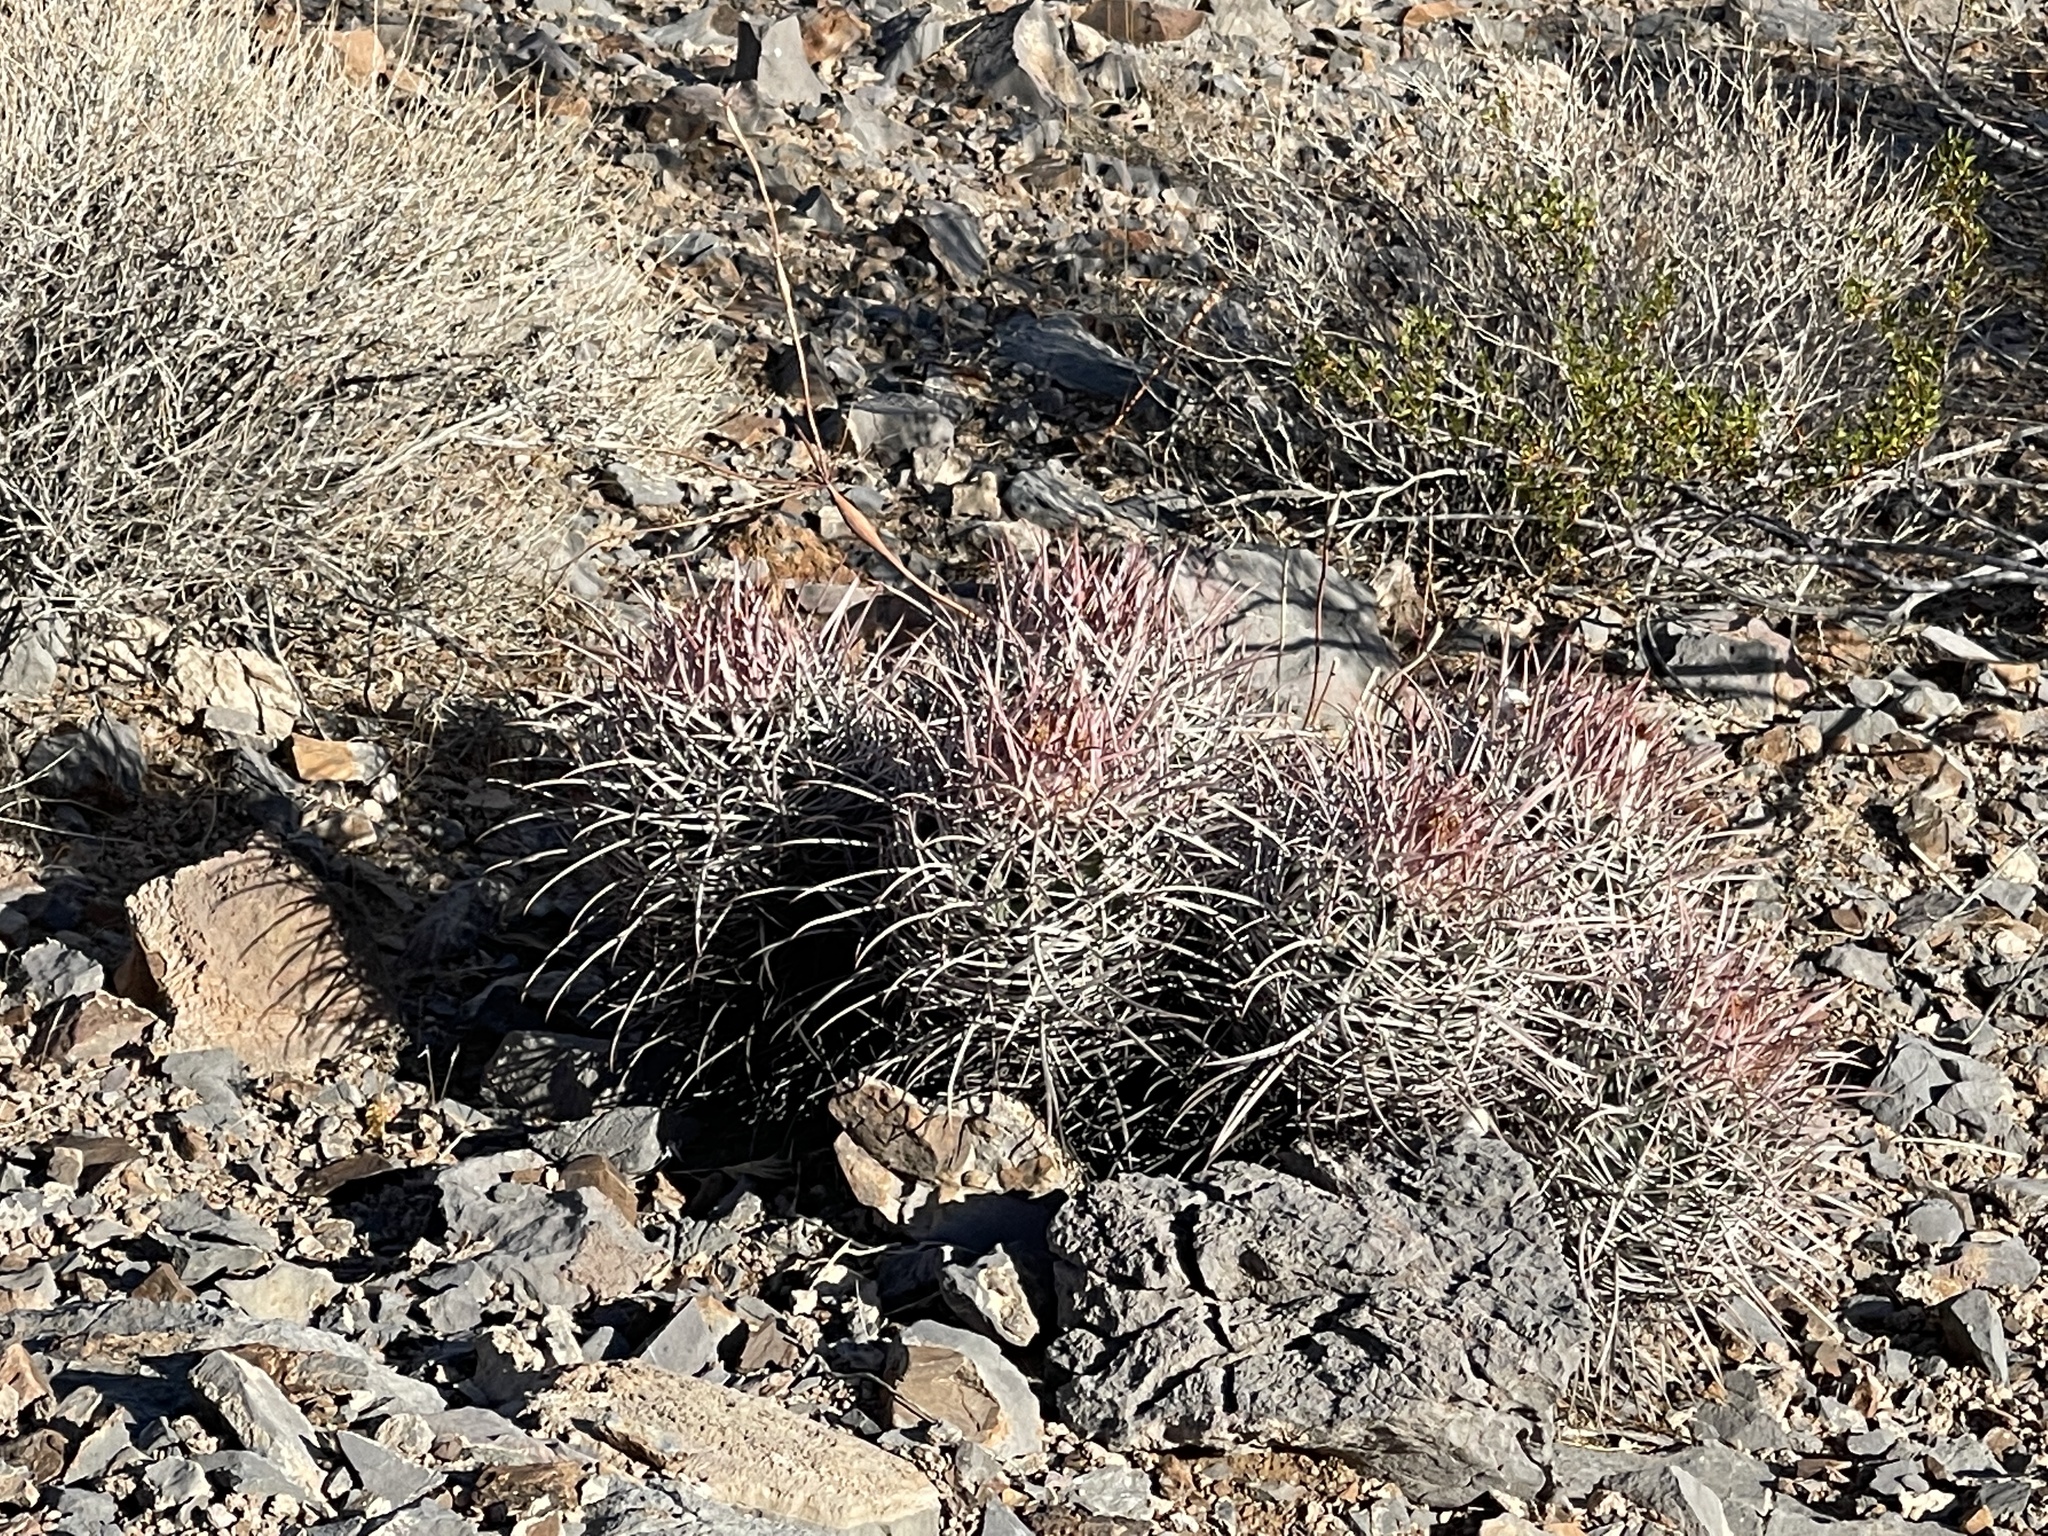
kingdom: Plantae
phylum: Tracheophyta
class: Magnoliopsida
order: Caryophyllales
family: Cactaceae
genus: Echinocactus
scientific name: Echinocactus polycephalus
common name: Cottontop cactus
